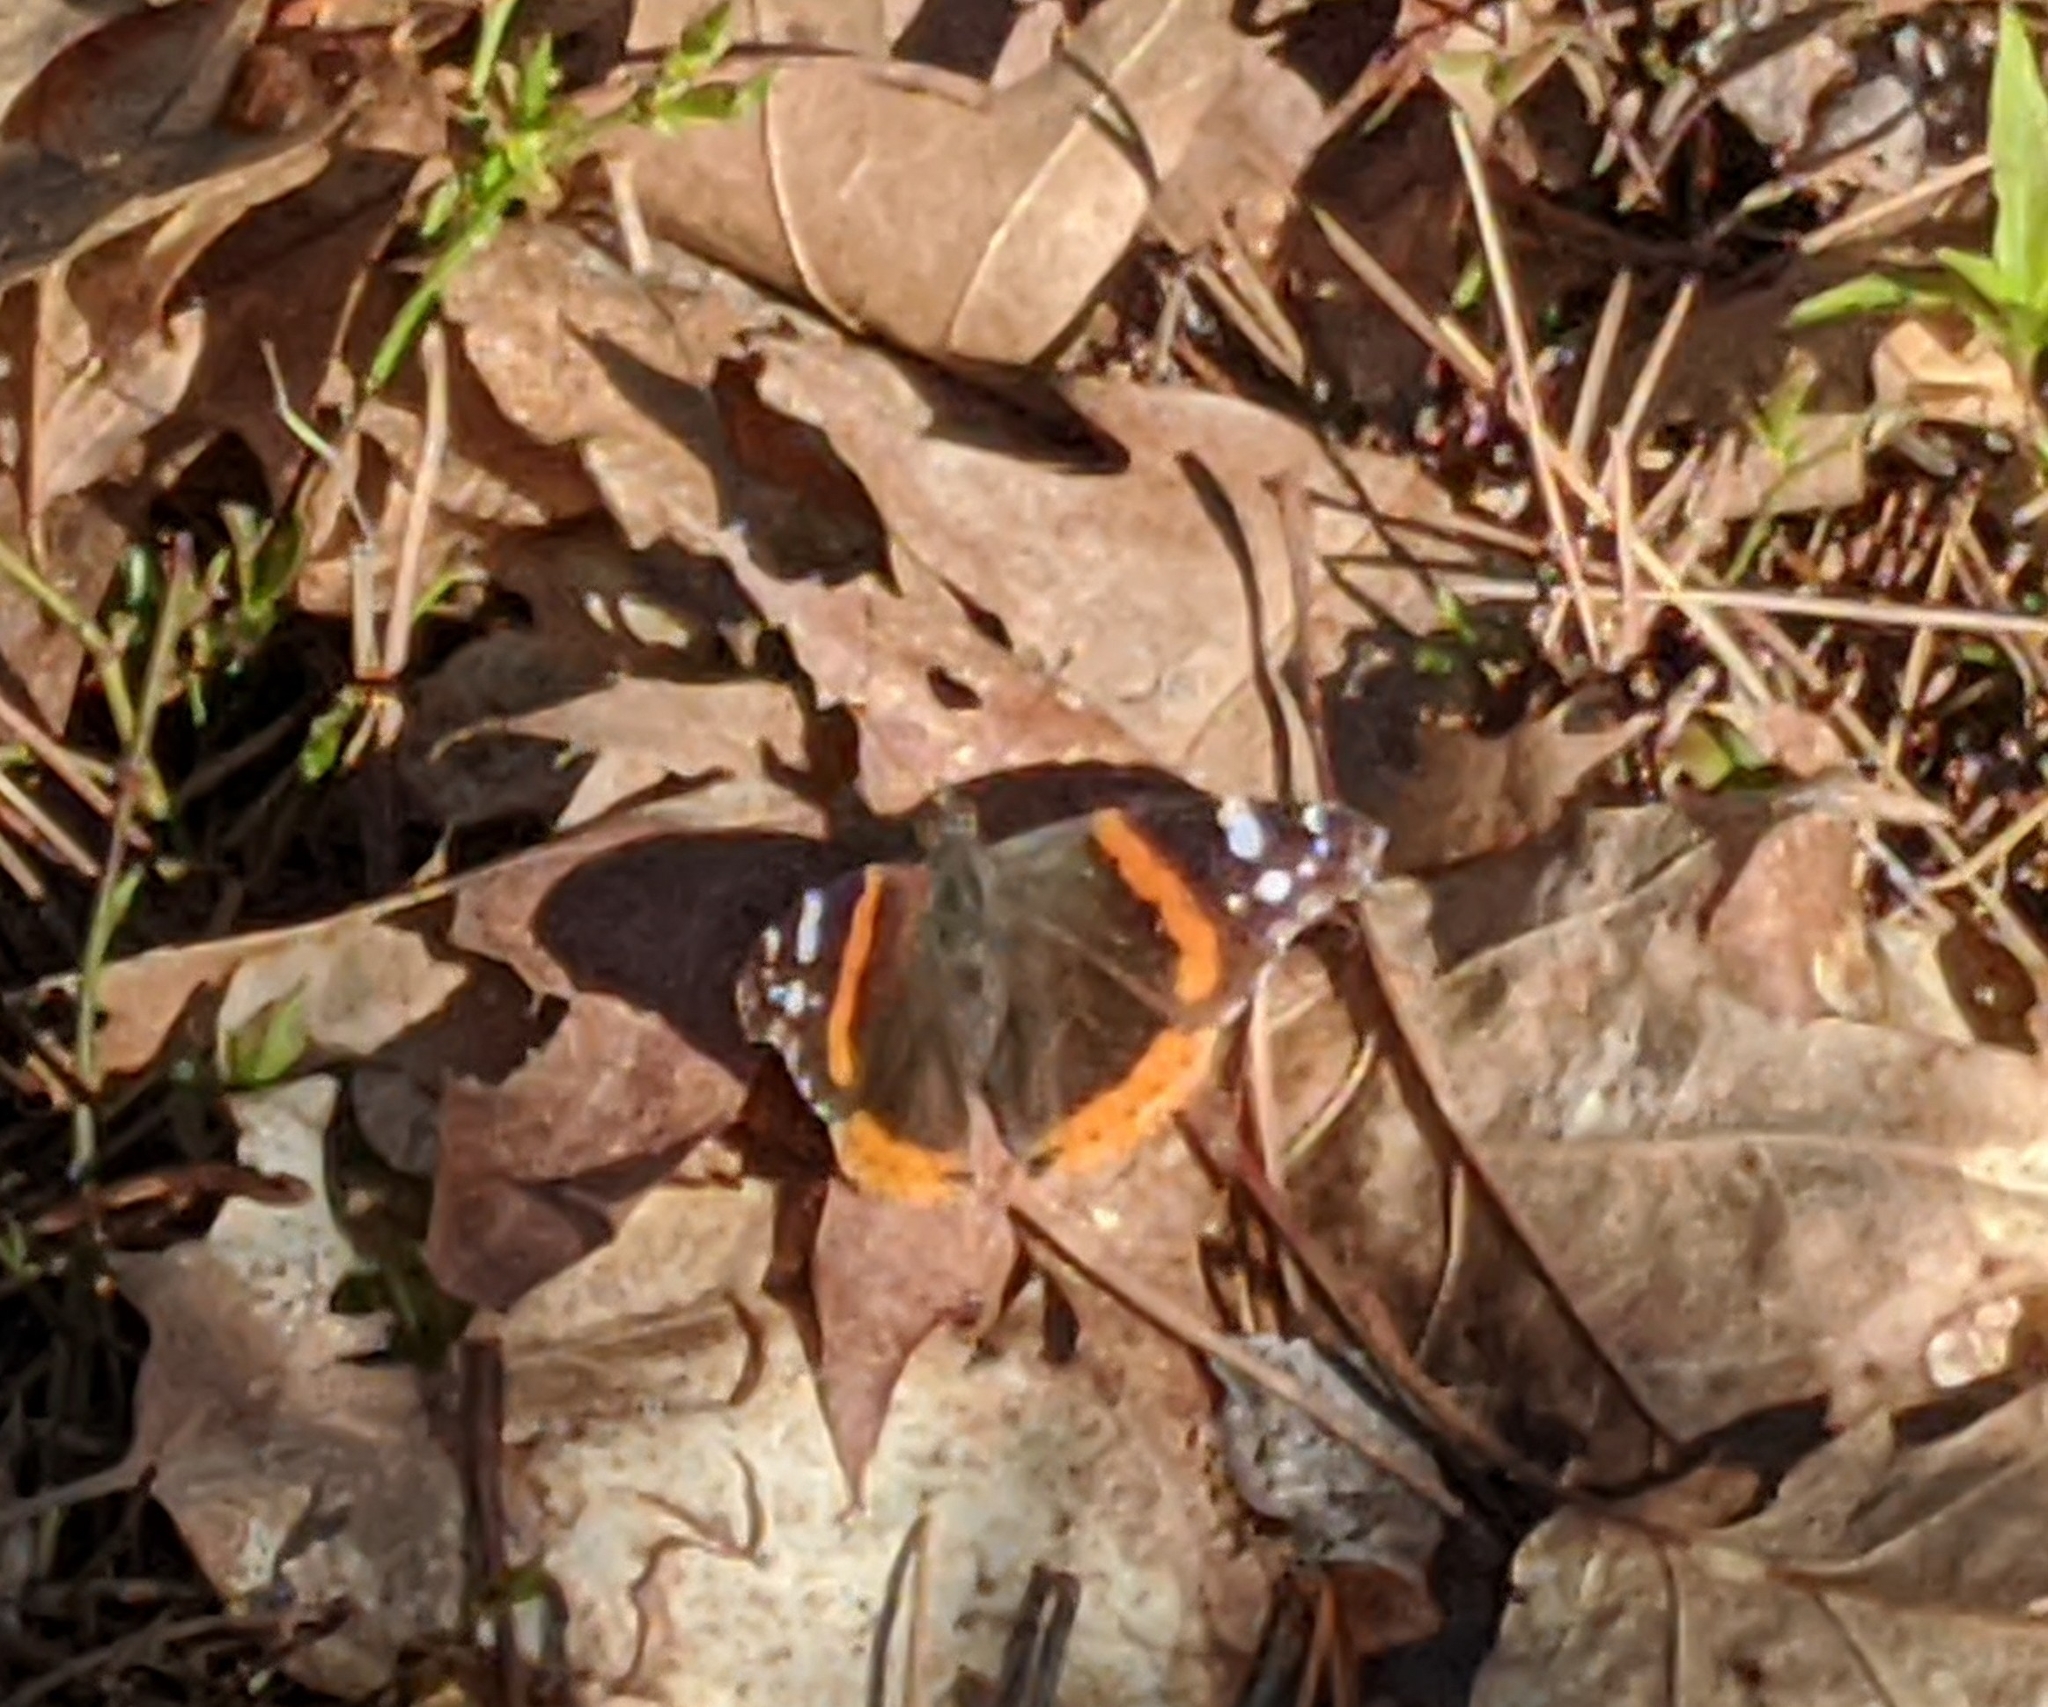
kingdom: Animalia
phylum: Arthropoda
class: Insecta
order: Lepidoptera
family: Nymphalidae
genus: Vanessa
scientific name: Vanessa atalanta
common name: Red admiral
